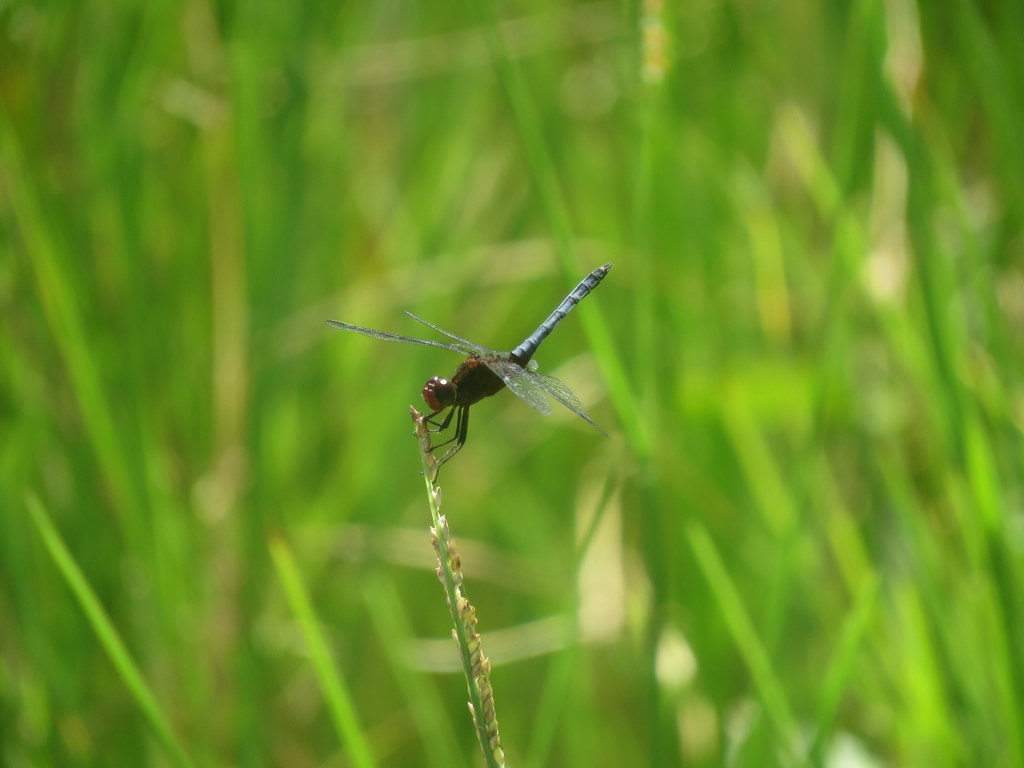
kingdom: Animalia
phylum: Arthropoda
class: Insecta
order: Odonata
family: Libellulidae
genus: Erythrodiplax
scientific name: Erythrodiplax melanorubra
